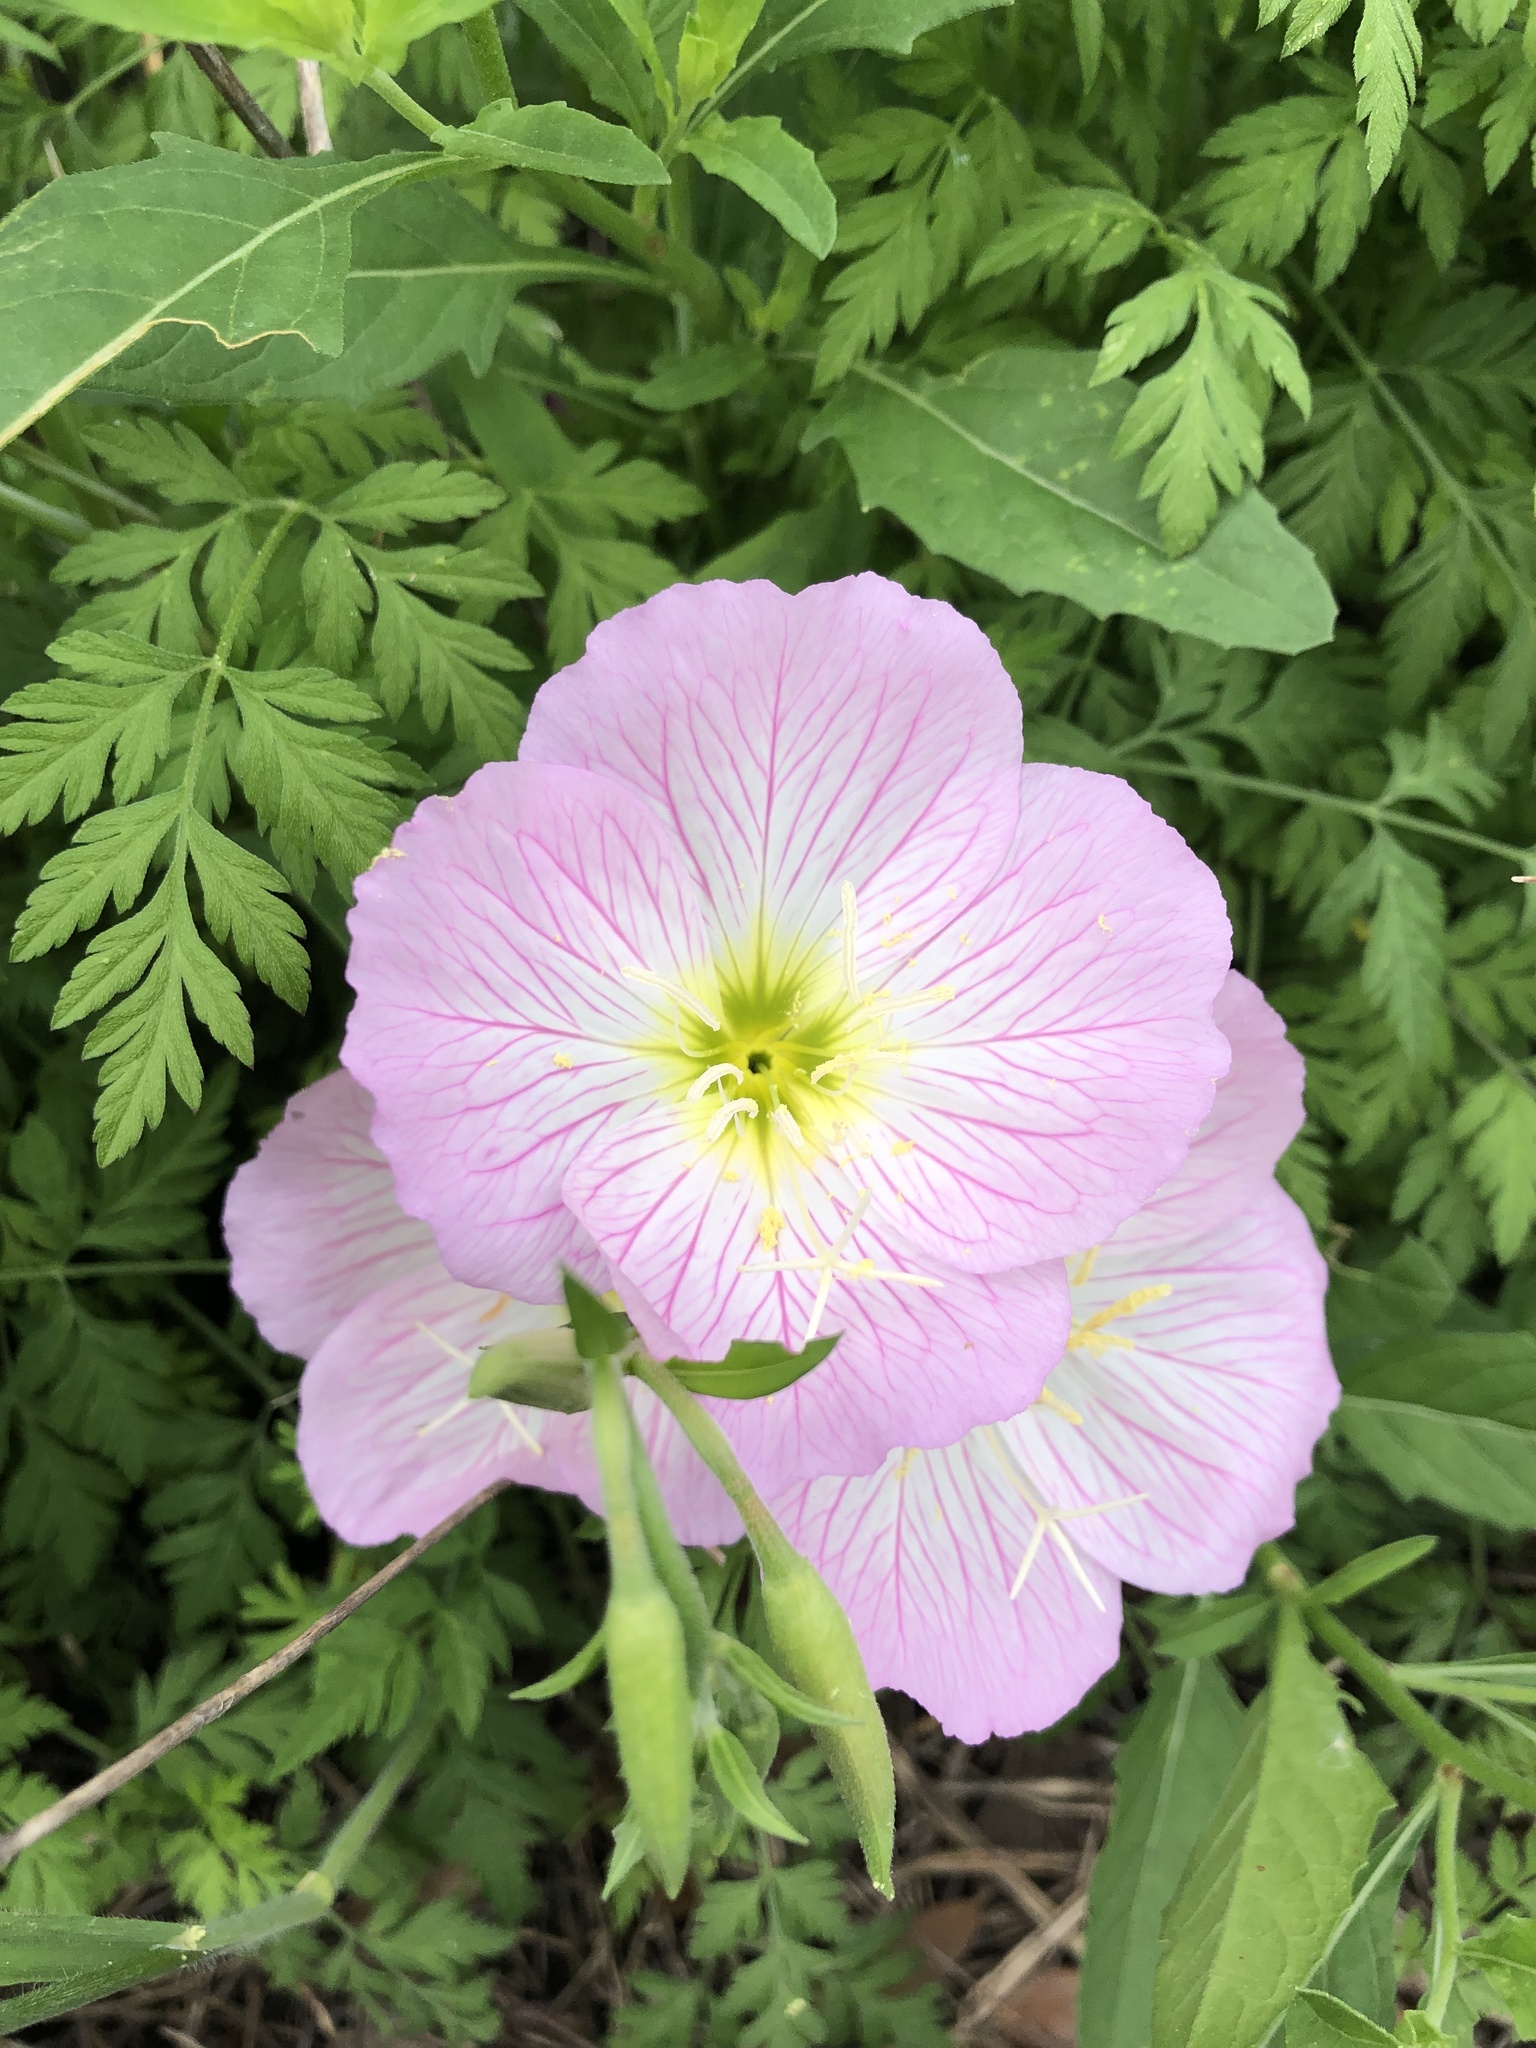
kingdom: Plantae
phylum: Tracheophyta
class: Magnoliopsida
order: Myrtales
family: Onagraceae
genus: Oenothera
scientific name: Oenothera speciosa
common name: White evening-primrose
